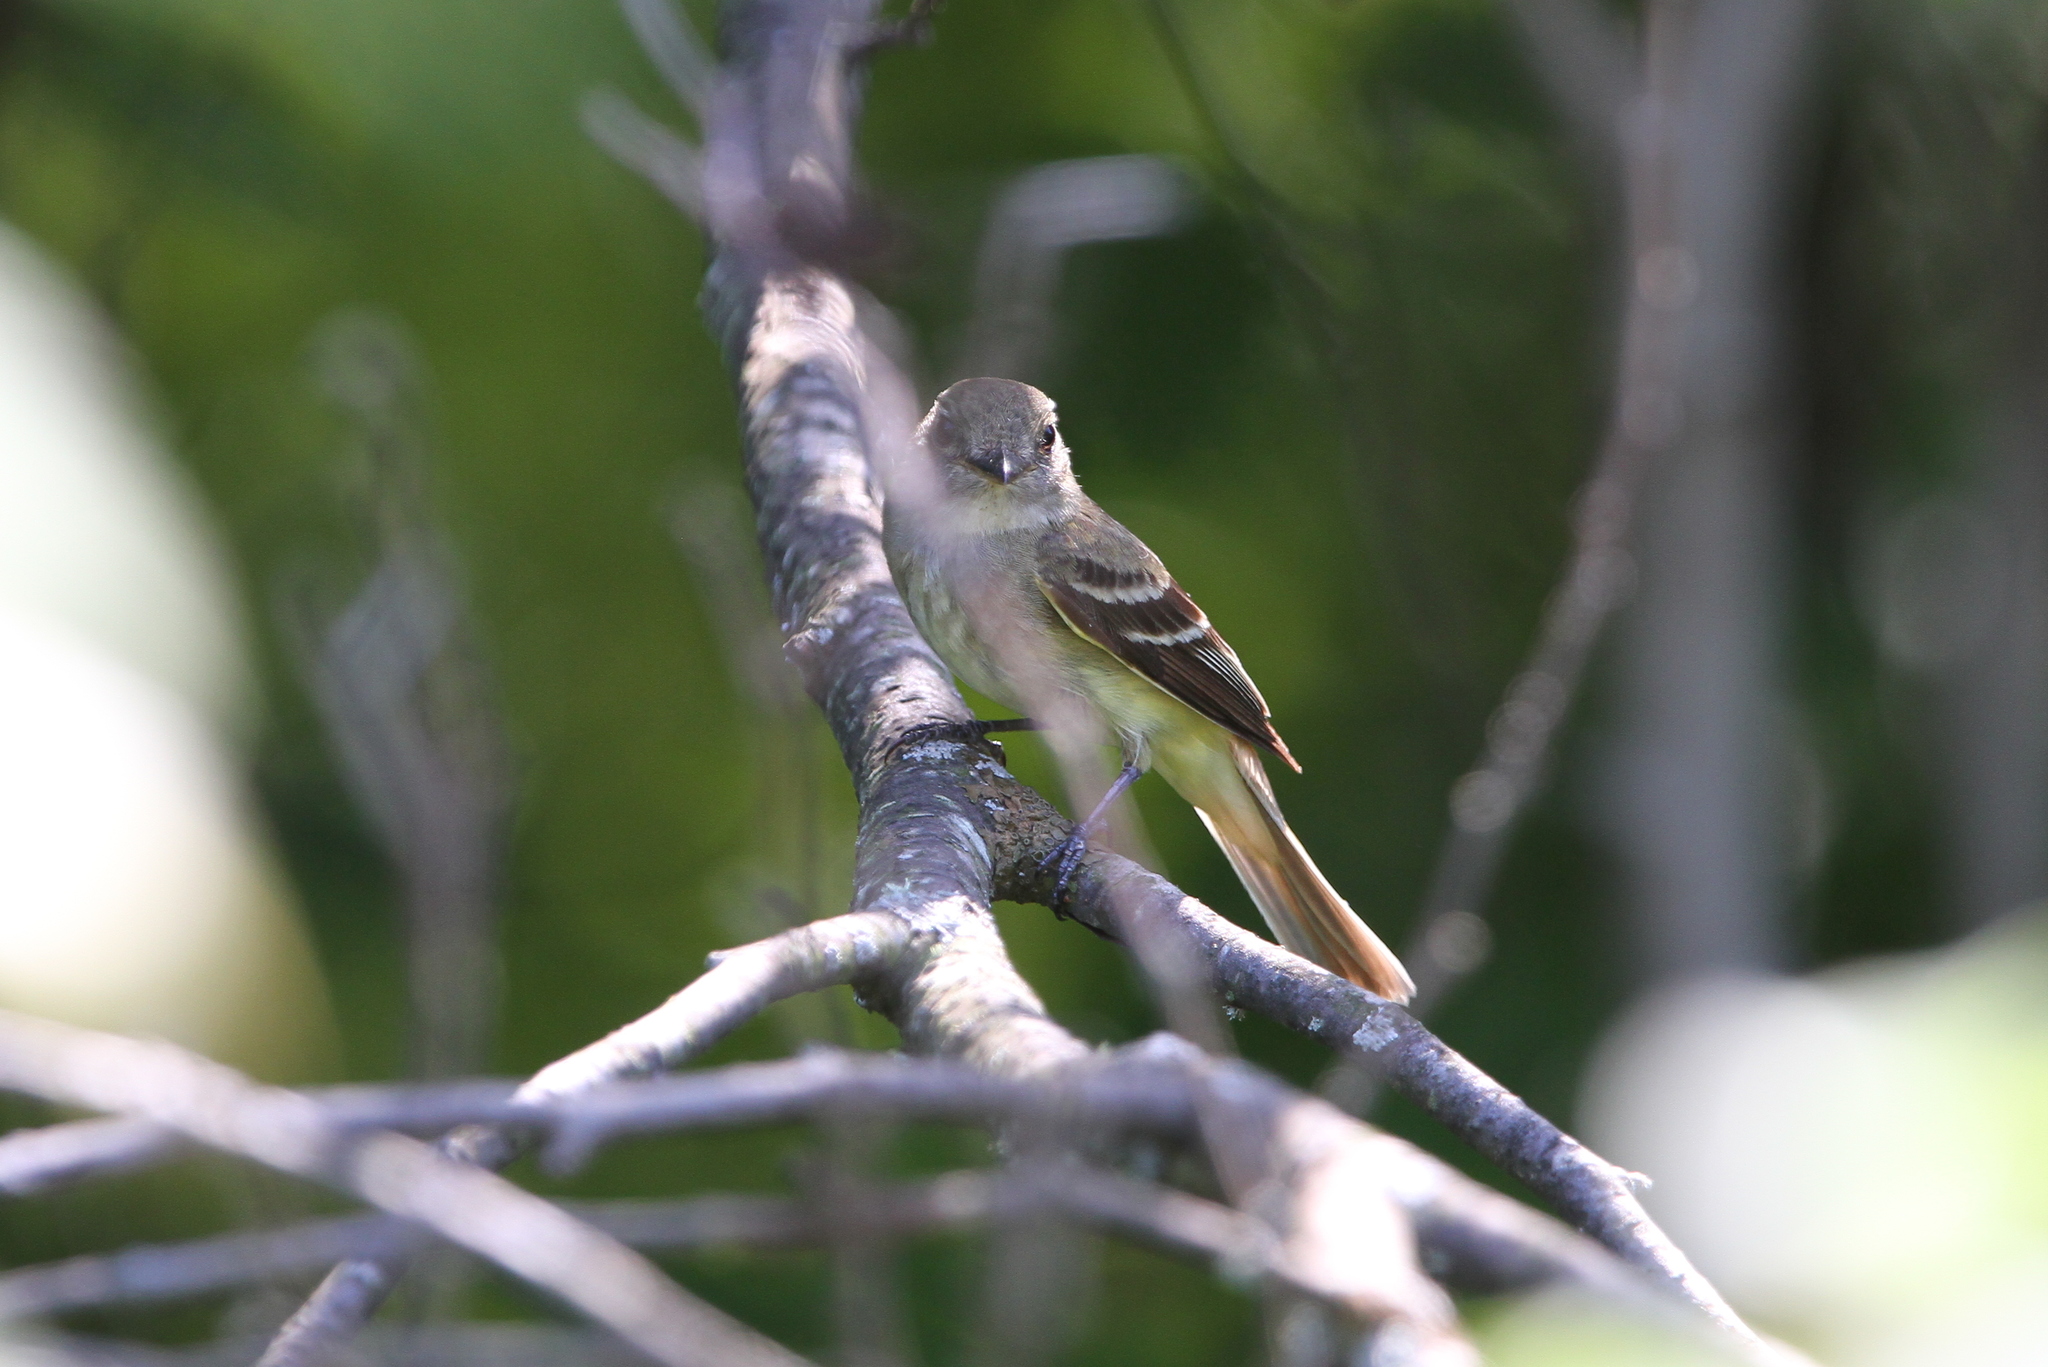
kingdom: Animalia
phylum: Chordata
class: Aves
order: Passeriformes
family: Tyrannidae
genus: Myiarchus
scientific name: Myiarchus crinitus
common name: Great crested flycatcher
